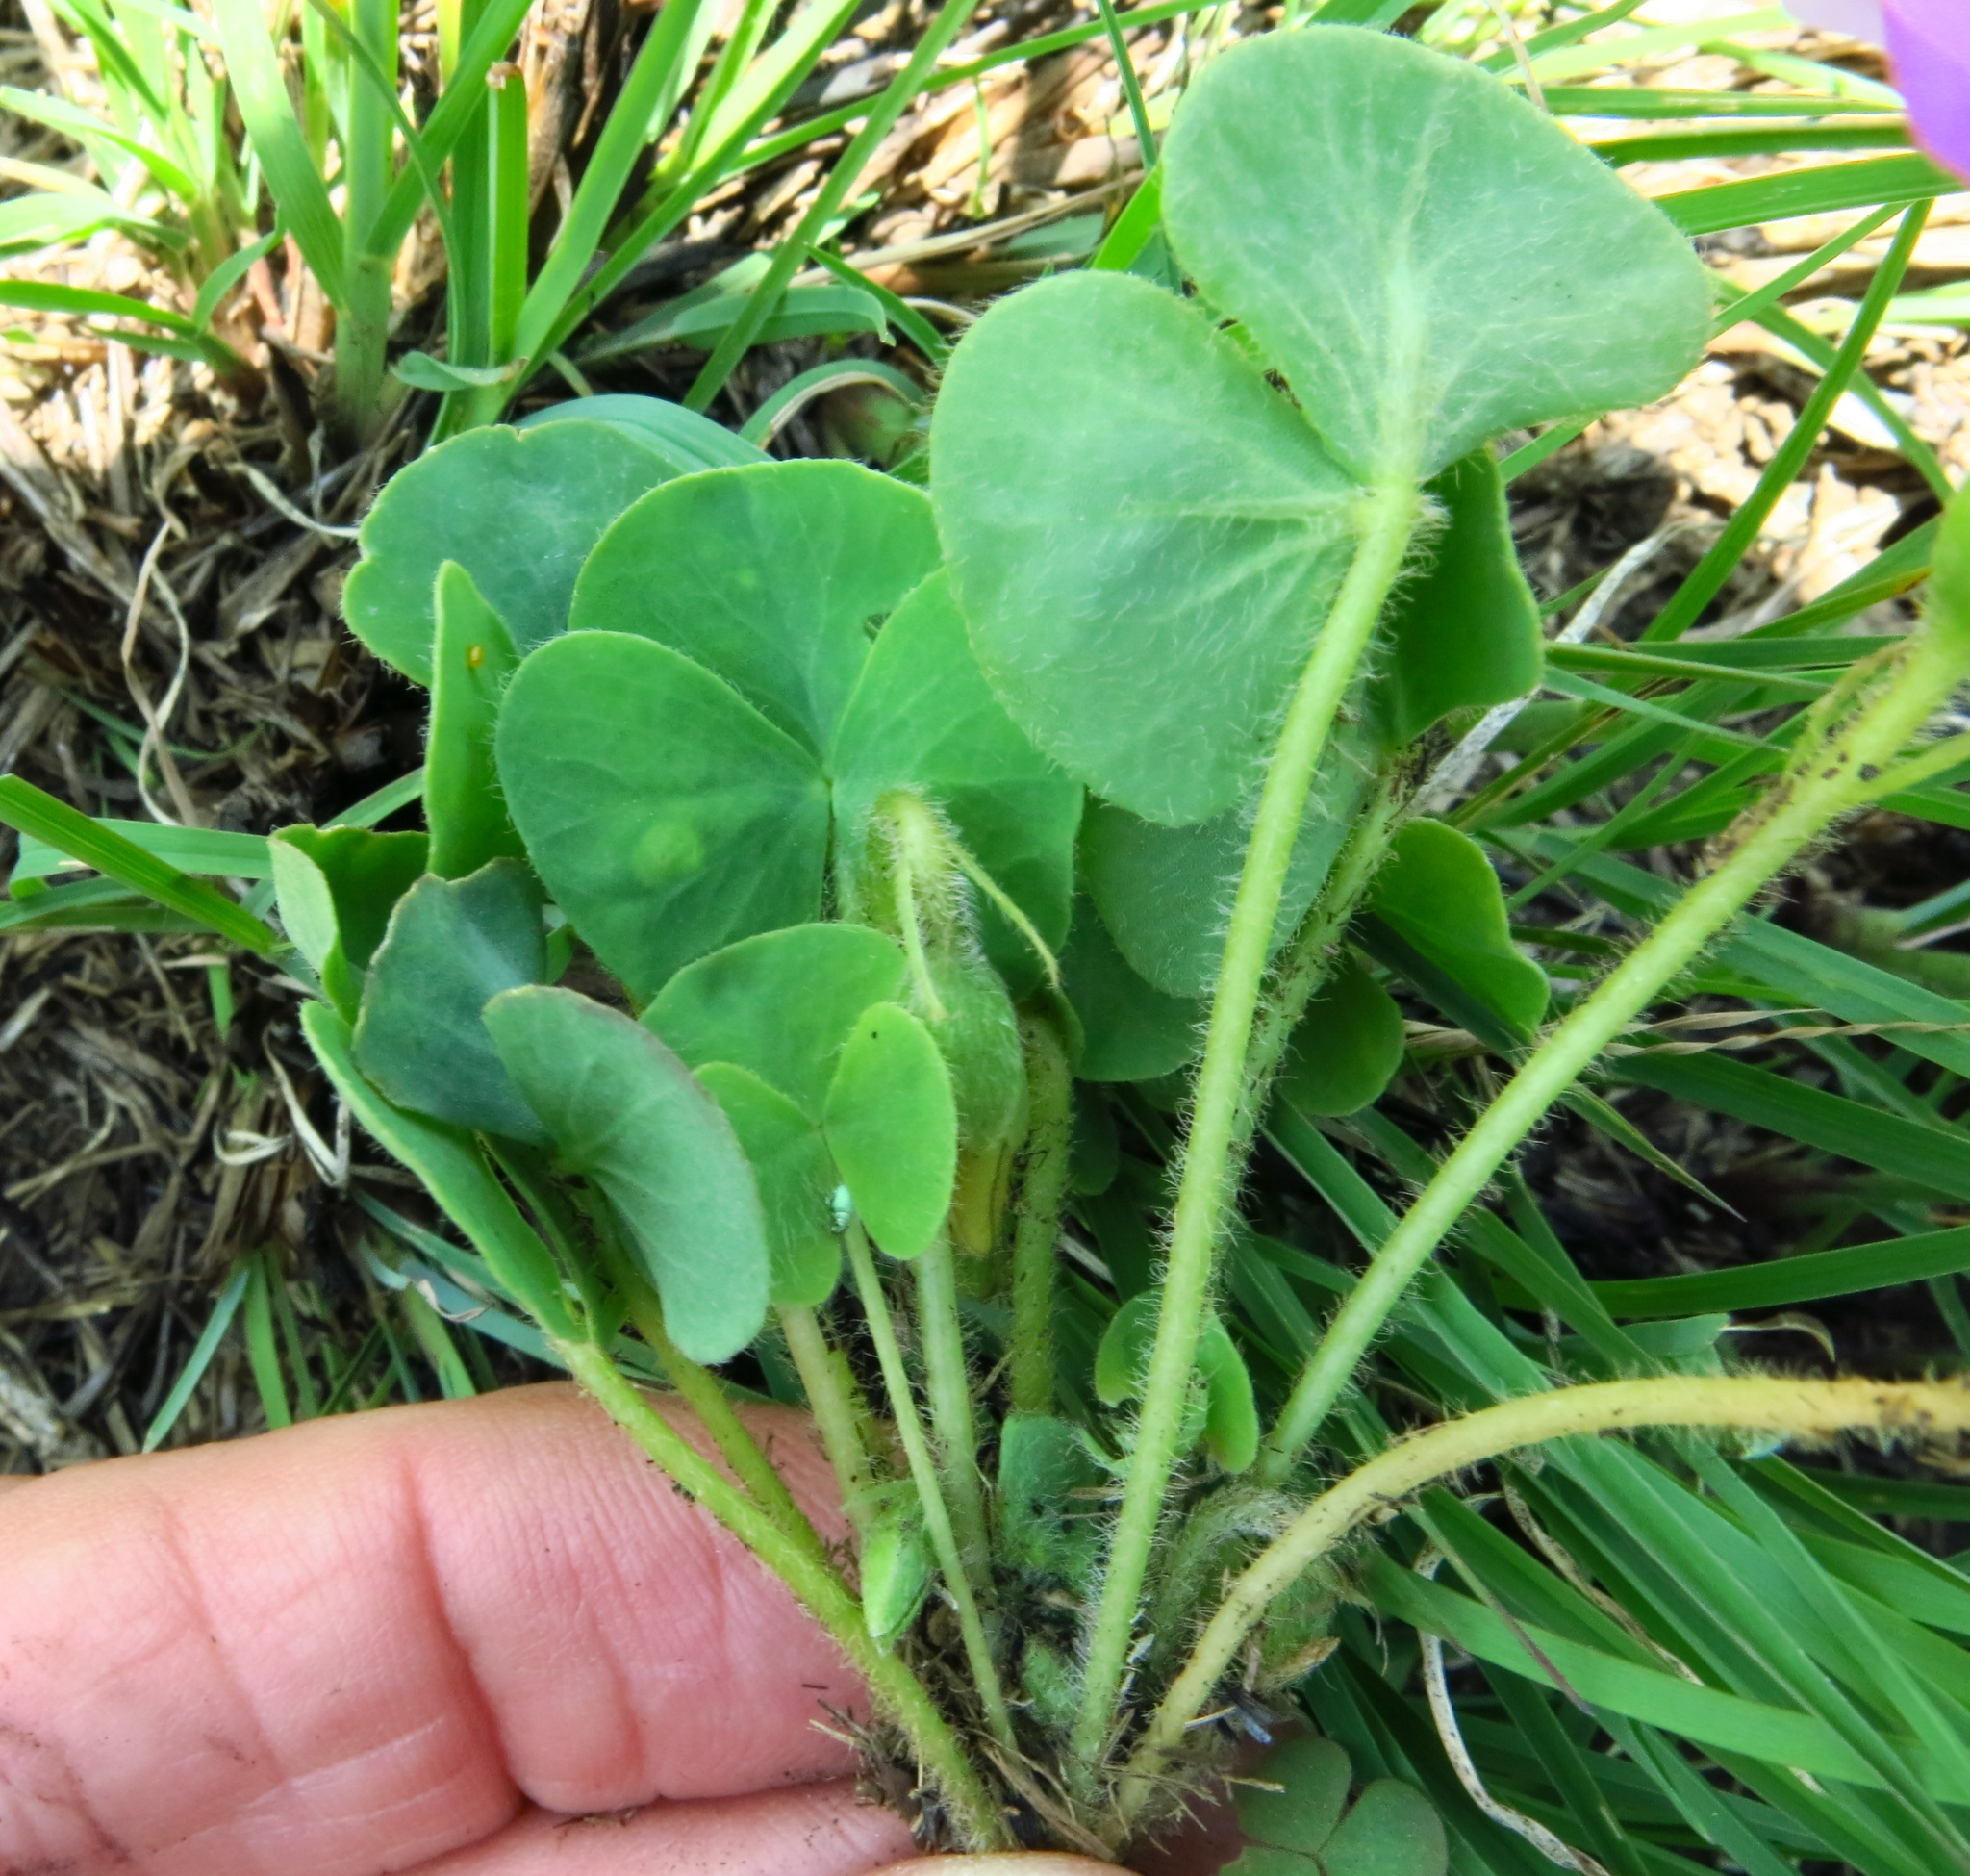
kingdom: Plantae
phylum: Tracheophyta
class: Magnoliopsida
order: Oxalidales
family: Oxalidaceae
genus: Oxalis
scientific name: Oxalis obliquifolia
